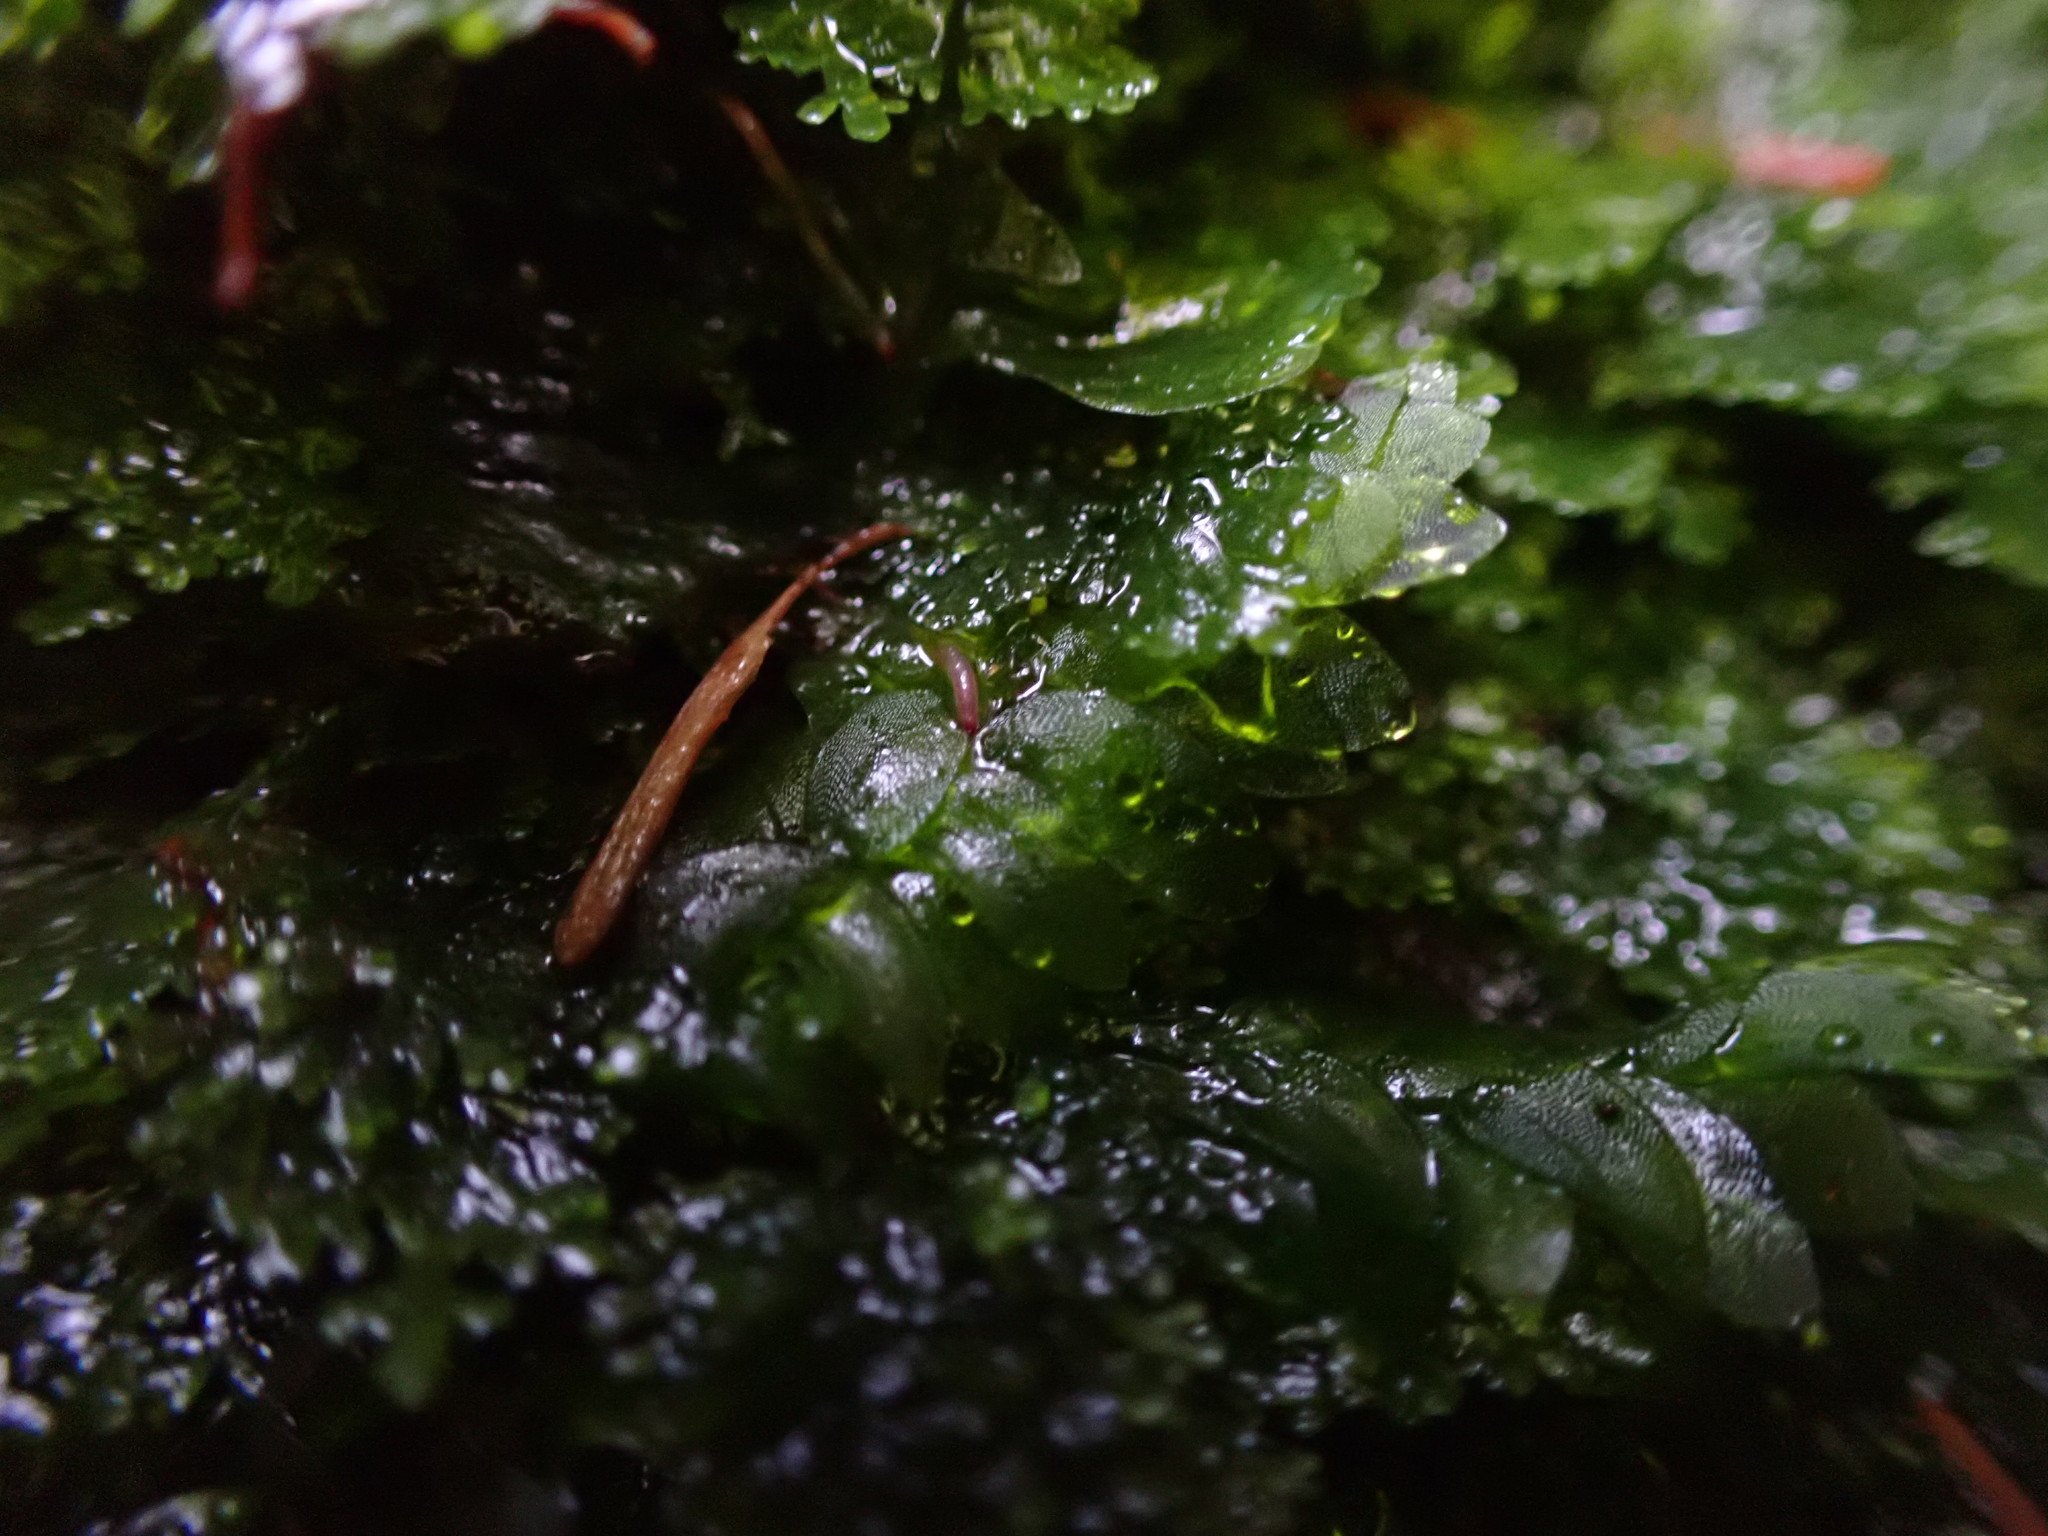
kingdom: Plantae
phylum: Bryophyta
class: Bryopsida
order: Hookeriales
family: Hookeriaceae
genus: Hookeria
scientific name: Hookeria lucens
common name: Shining hookeria
